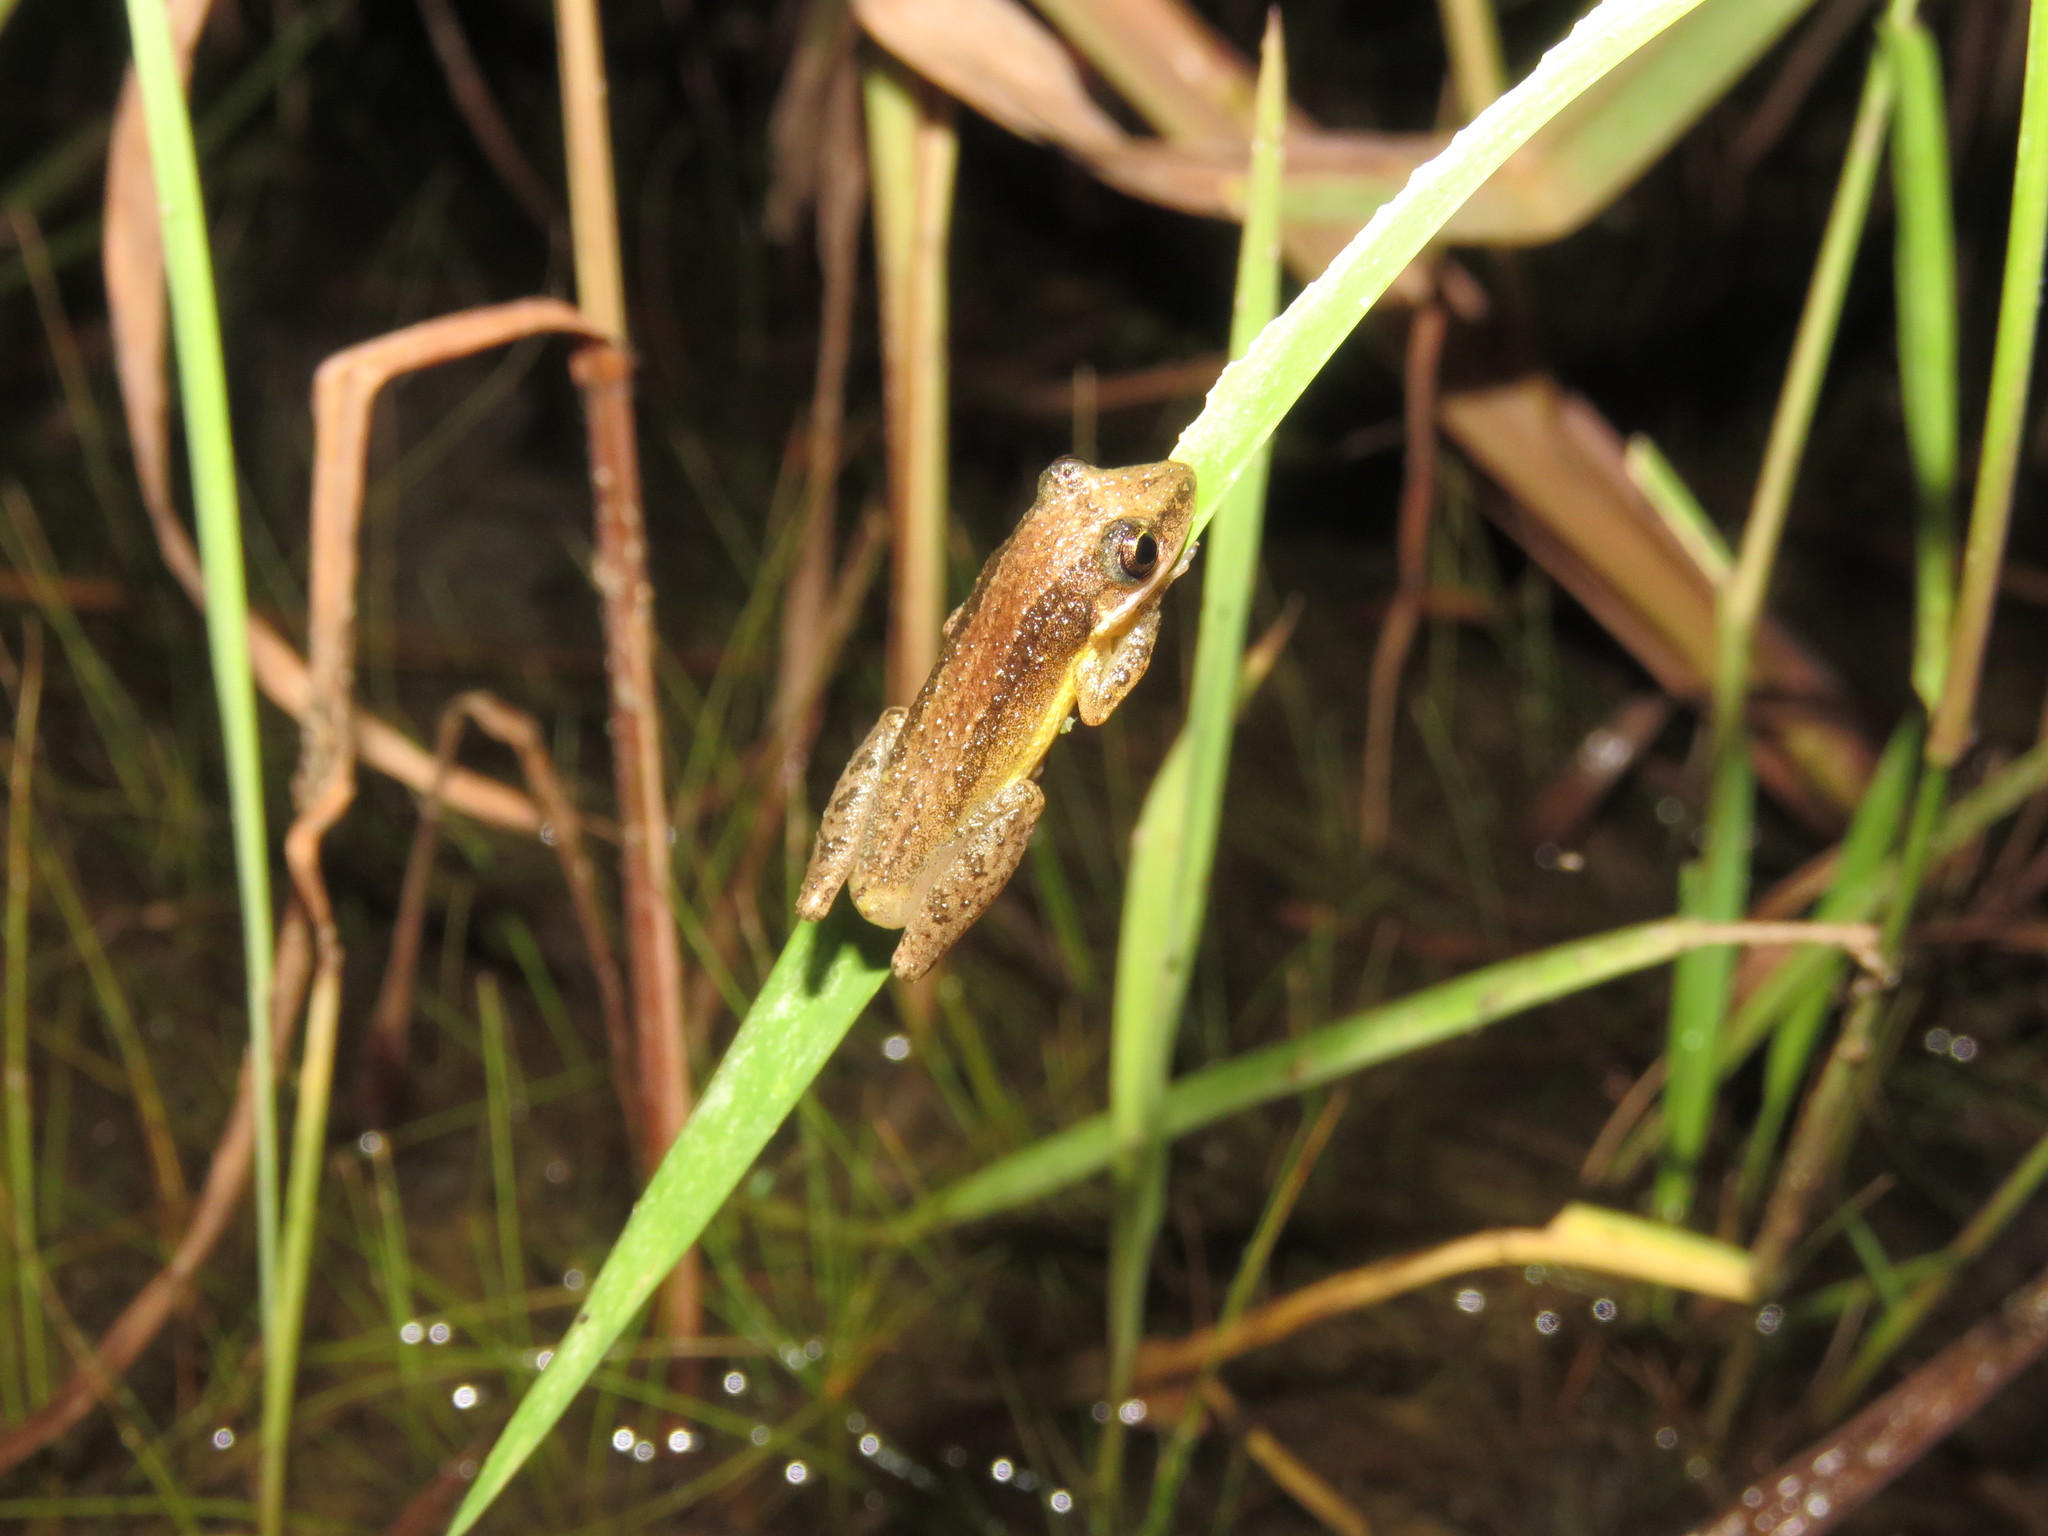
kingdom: Animalia
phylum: Chordata
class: Amphibia
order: Anura
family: Hylidae
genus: Scinax
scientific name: Scinax fuscomarginatus
